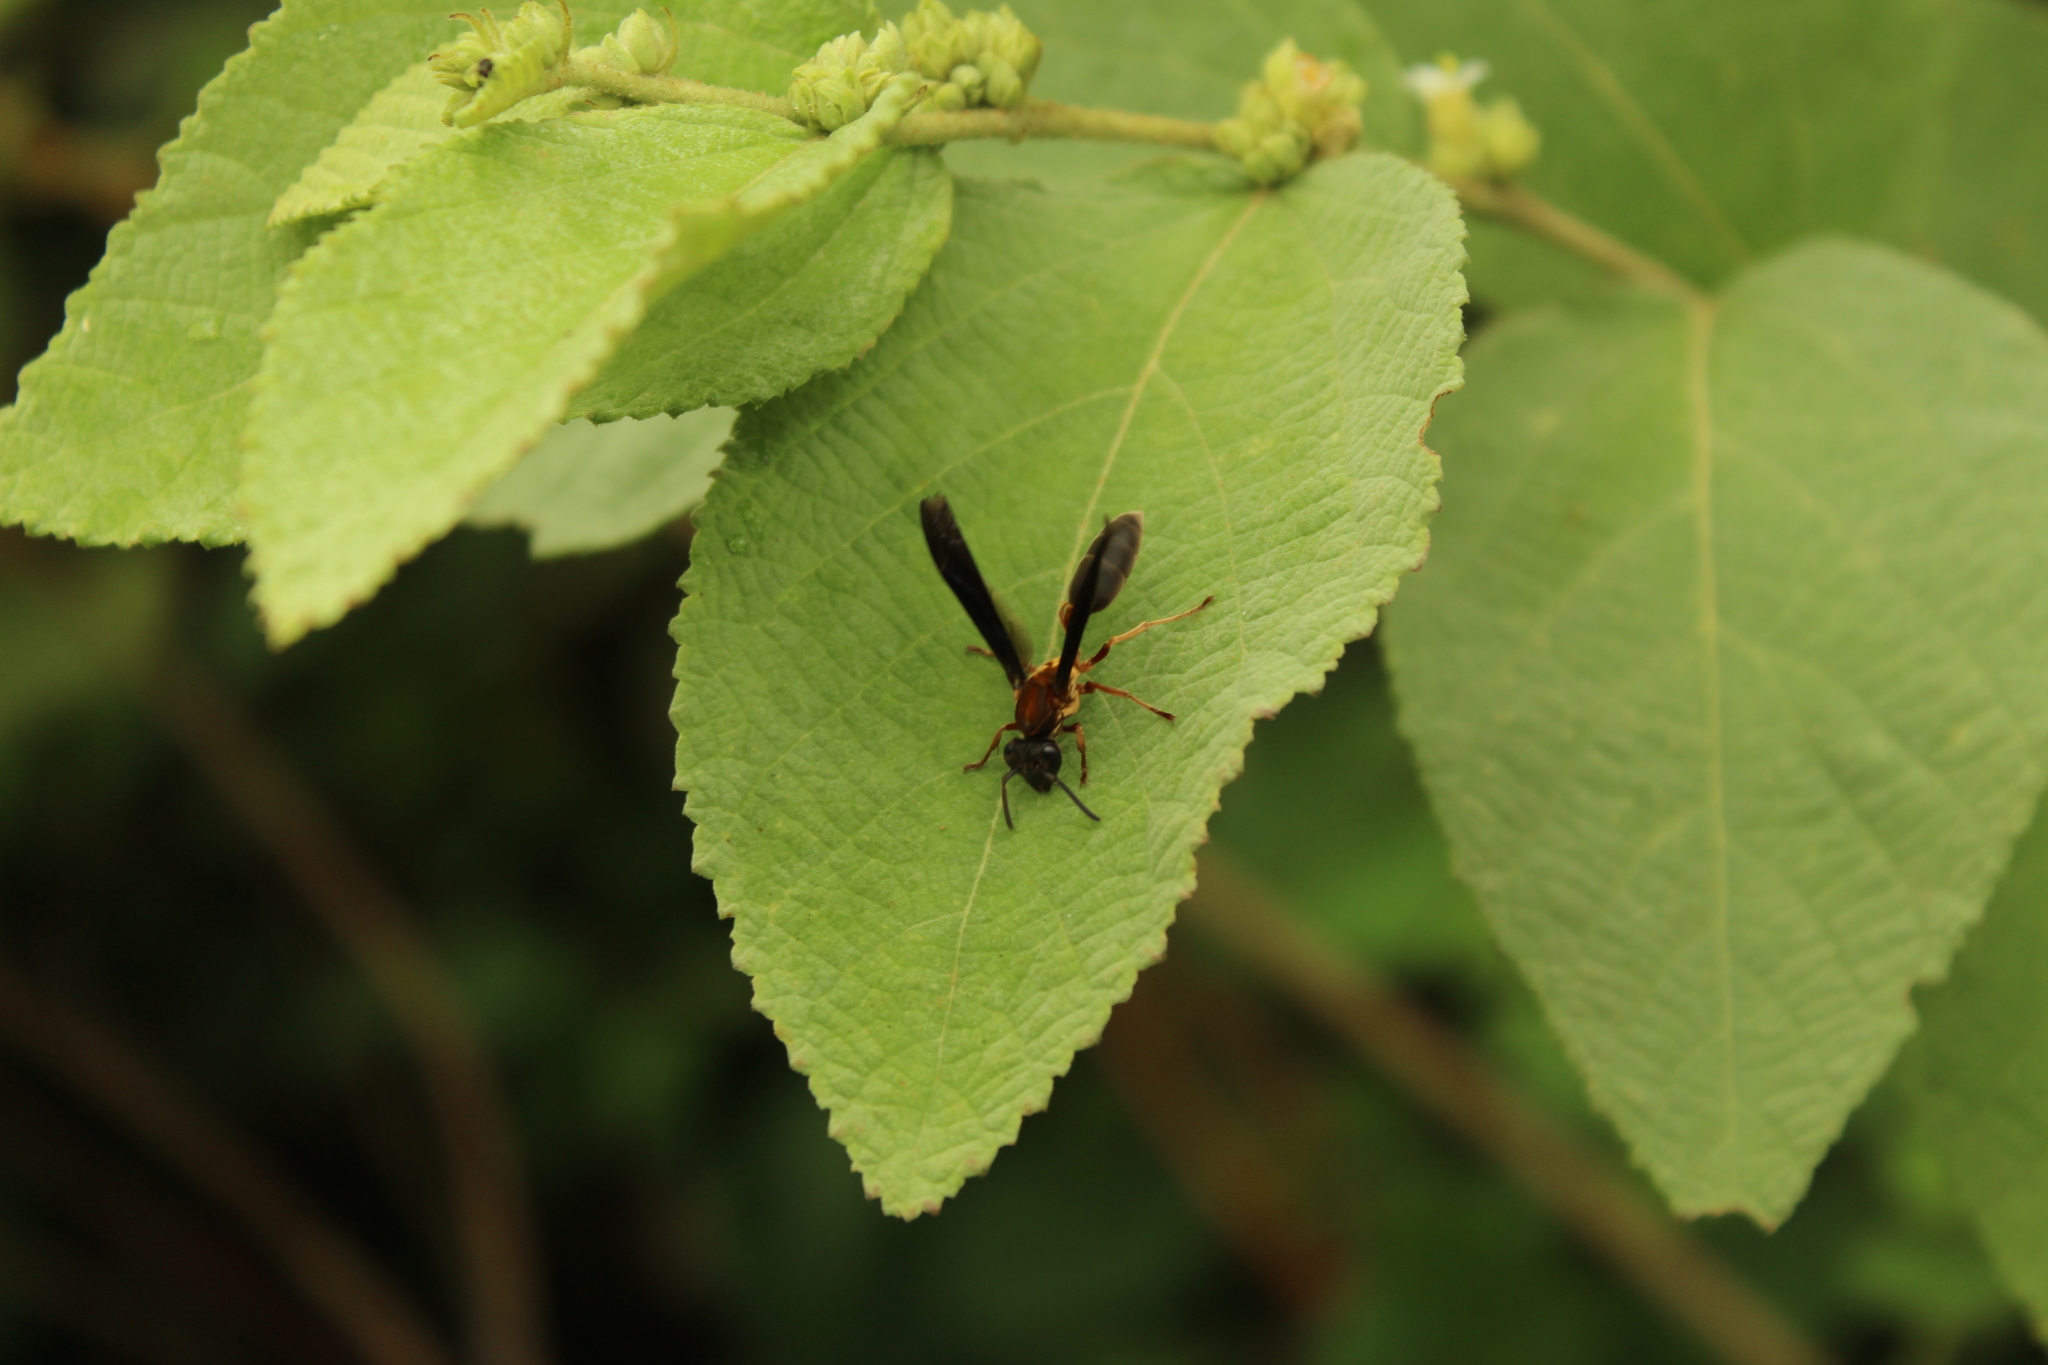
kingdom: Animalia
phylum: Arthropoda
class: Insecta
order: Hymenoptera
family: Eumenidae
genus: Polybia
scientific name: Polybia sericea
